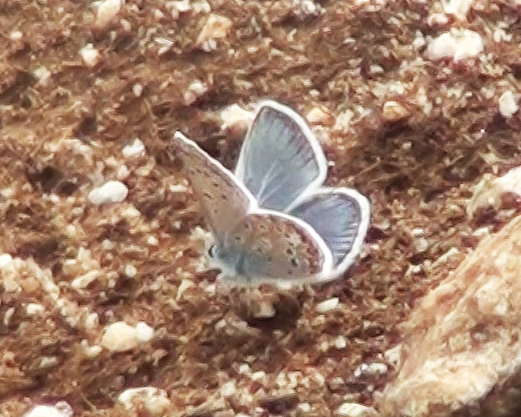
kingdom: Animalia
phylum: Arthropoda
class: Insecta
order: Lepidoptera
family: Lycaenidae
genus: Polyommatus
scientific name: Polyommatus erotides
